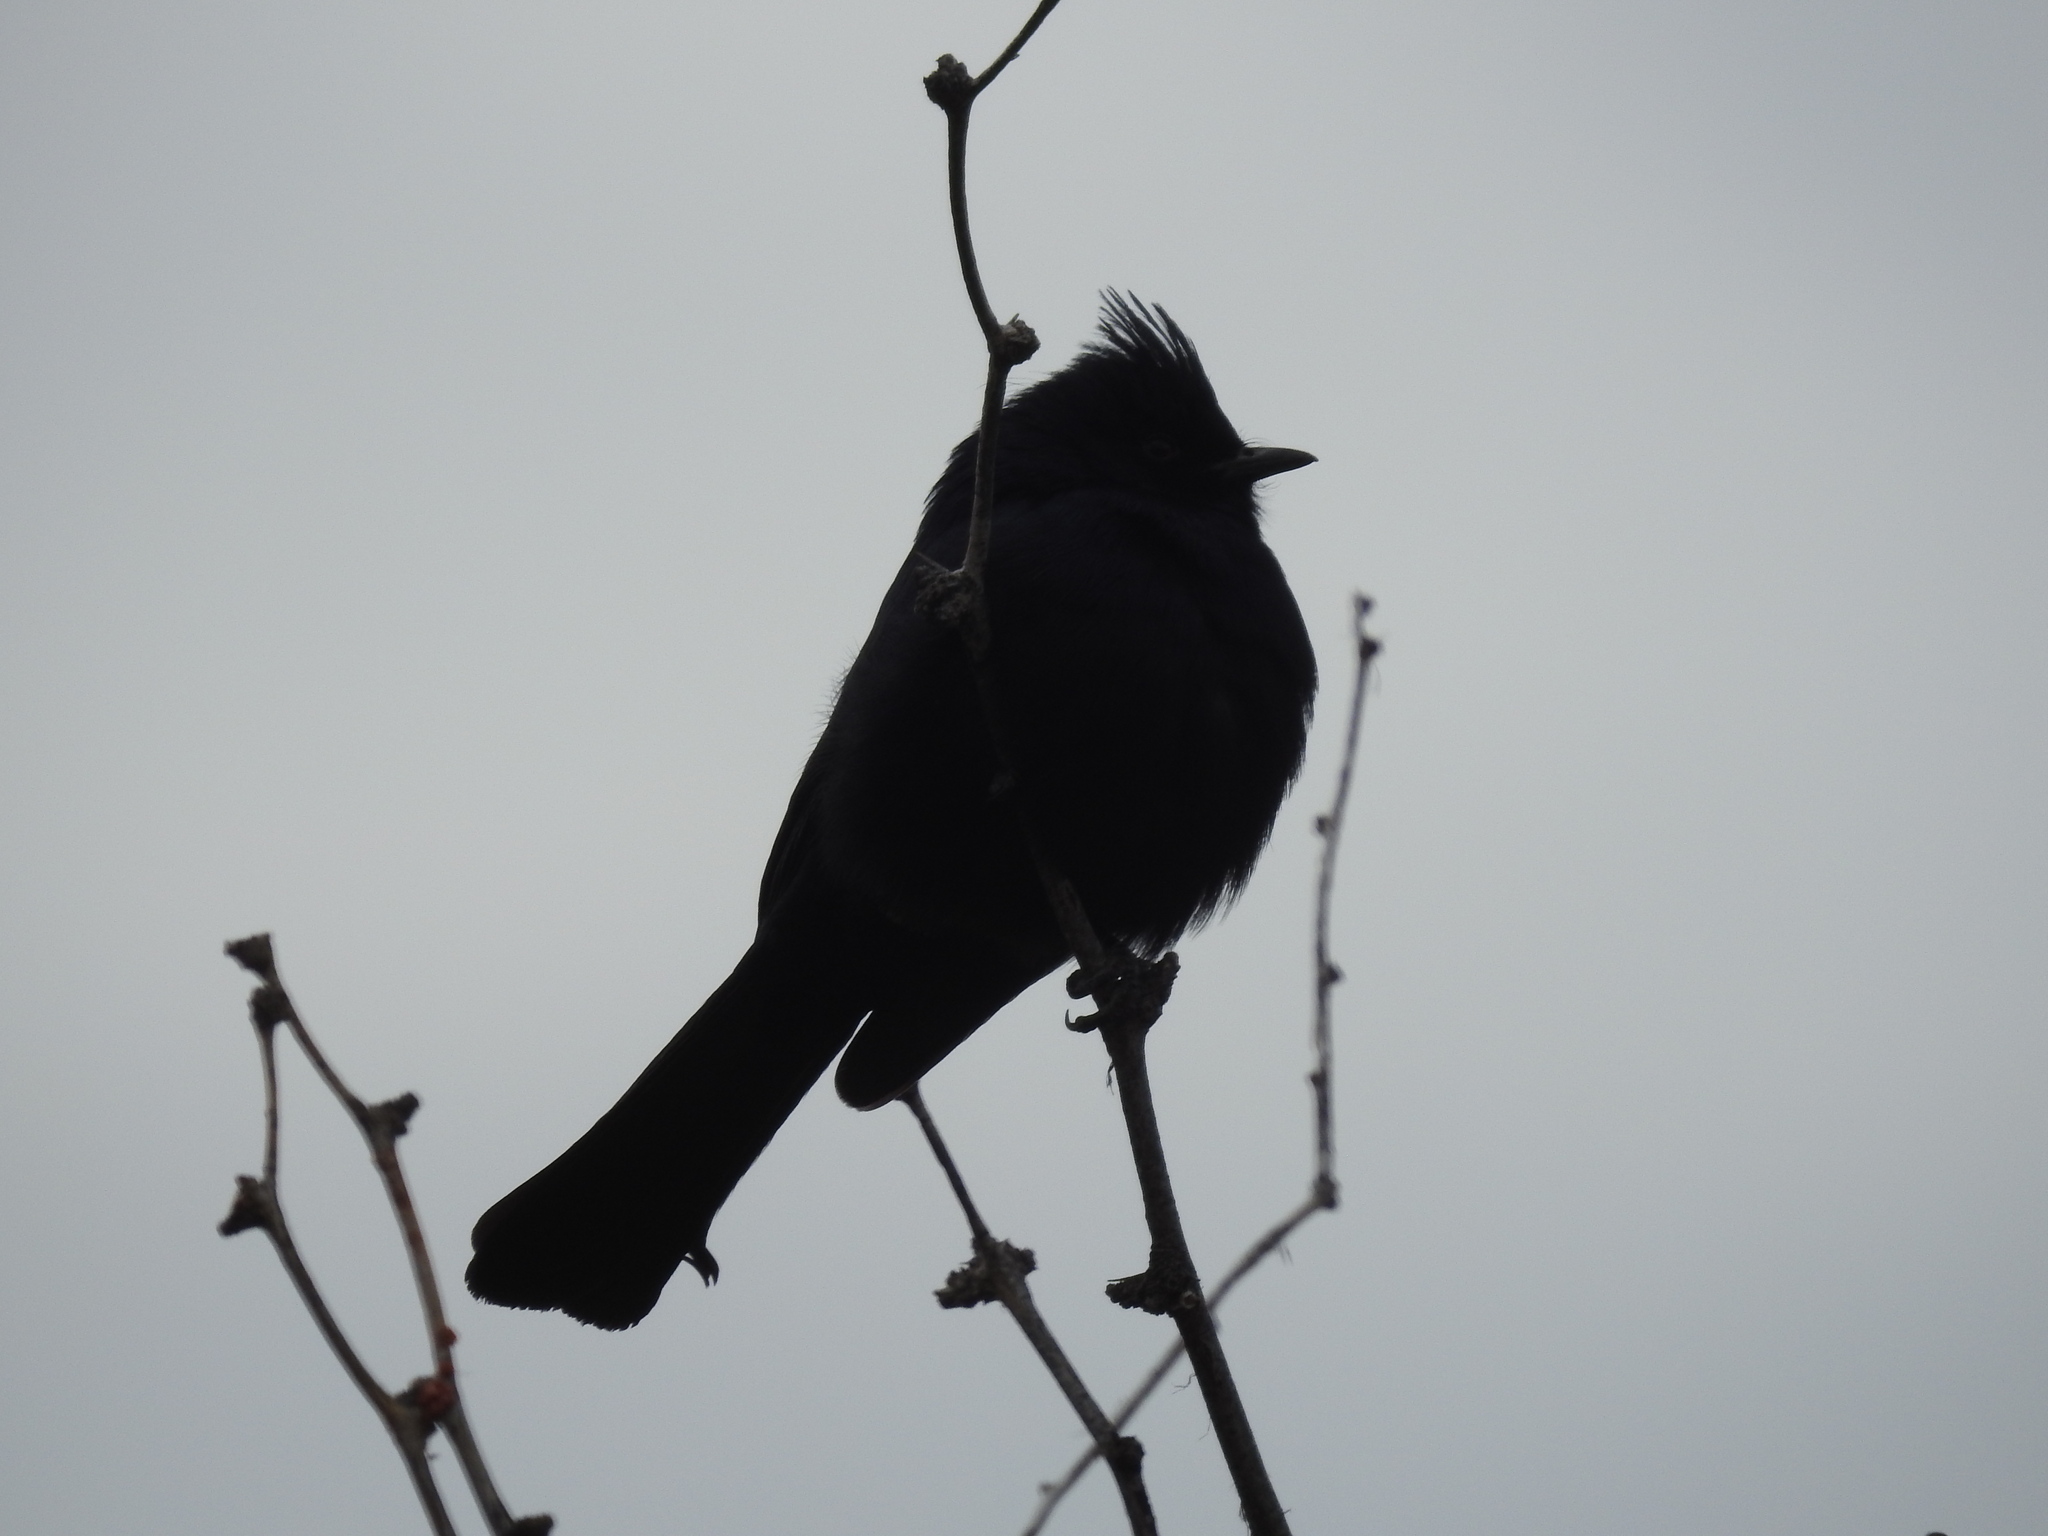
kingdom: Animalia
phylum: Chordata
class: Aves
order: Passeriformes
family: Ptilogonatidae
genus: Phainopepla
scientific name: Phainopepla nitens
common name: Phainopepla
